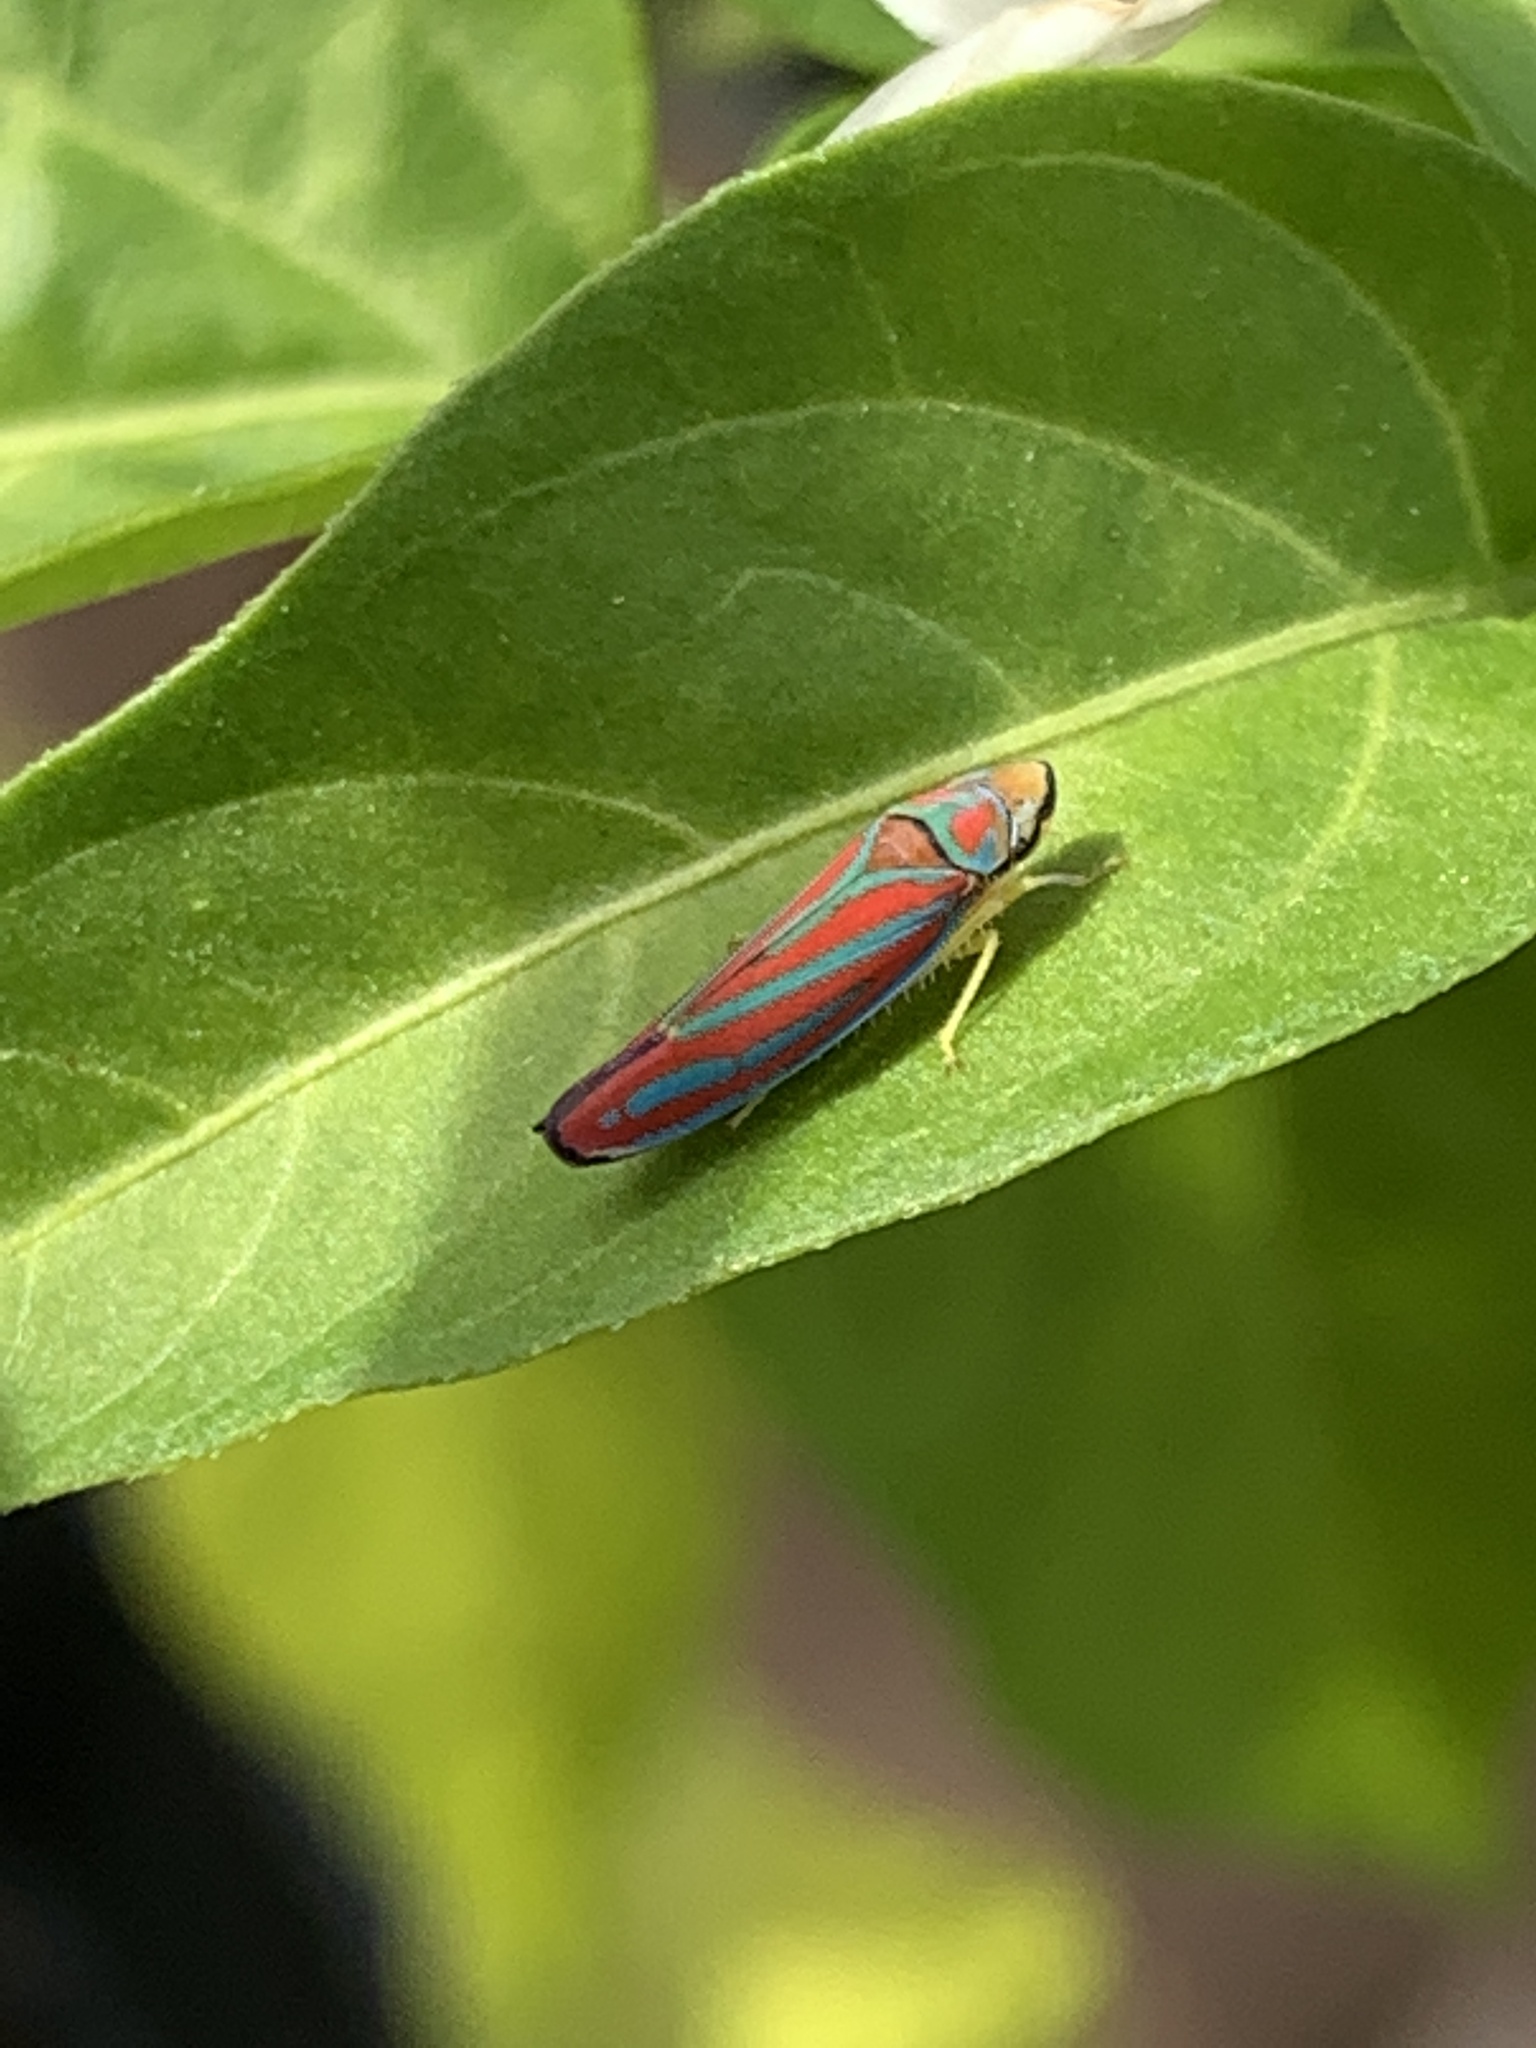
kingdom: Animalia
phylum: Arthropoda
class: Insecta
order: Hemiptera
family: Cicadellidae
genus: Graphocephala
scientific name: Graphocephala coccinea
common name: Candy-striped leafhopper
